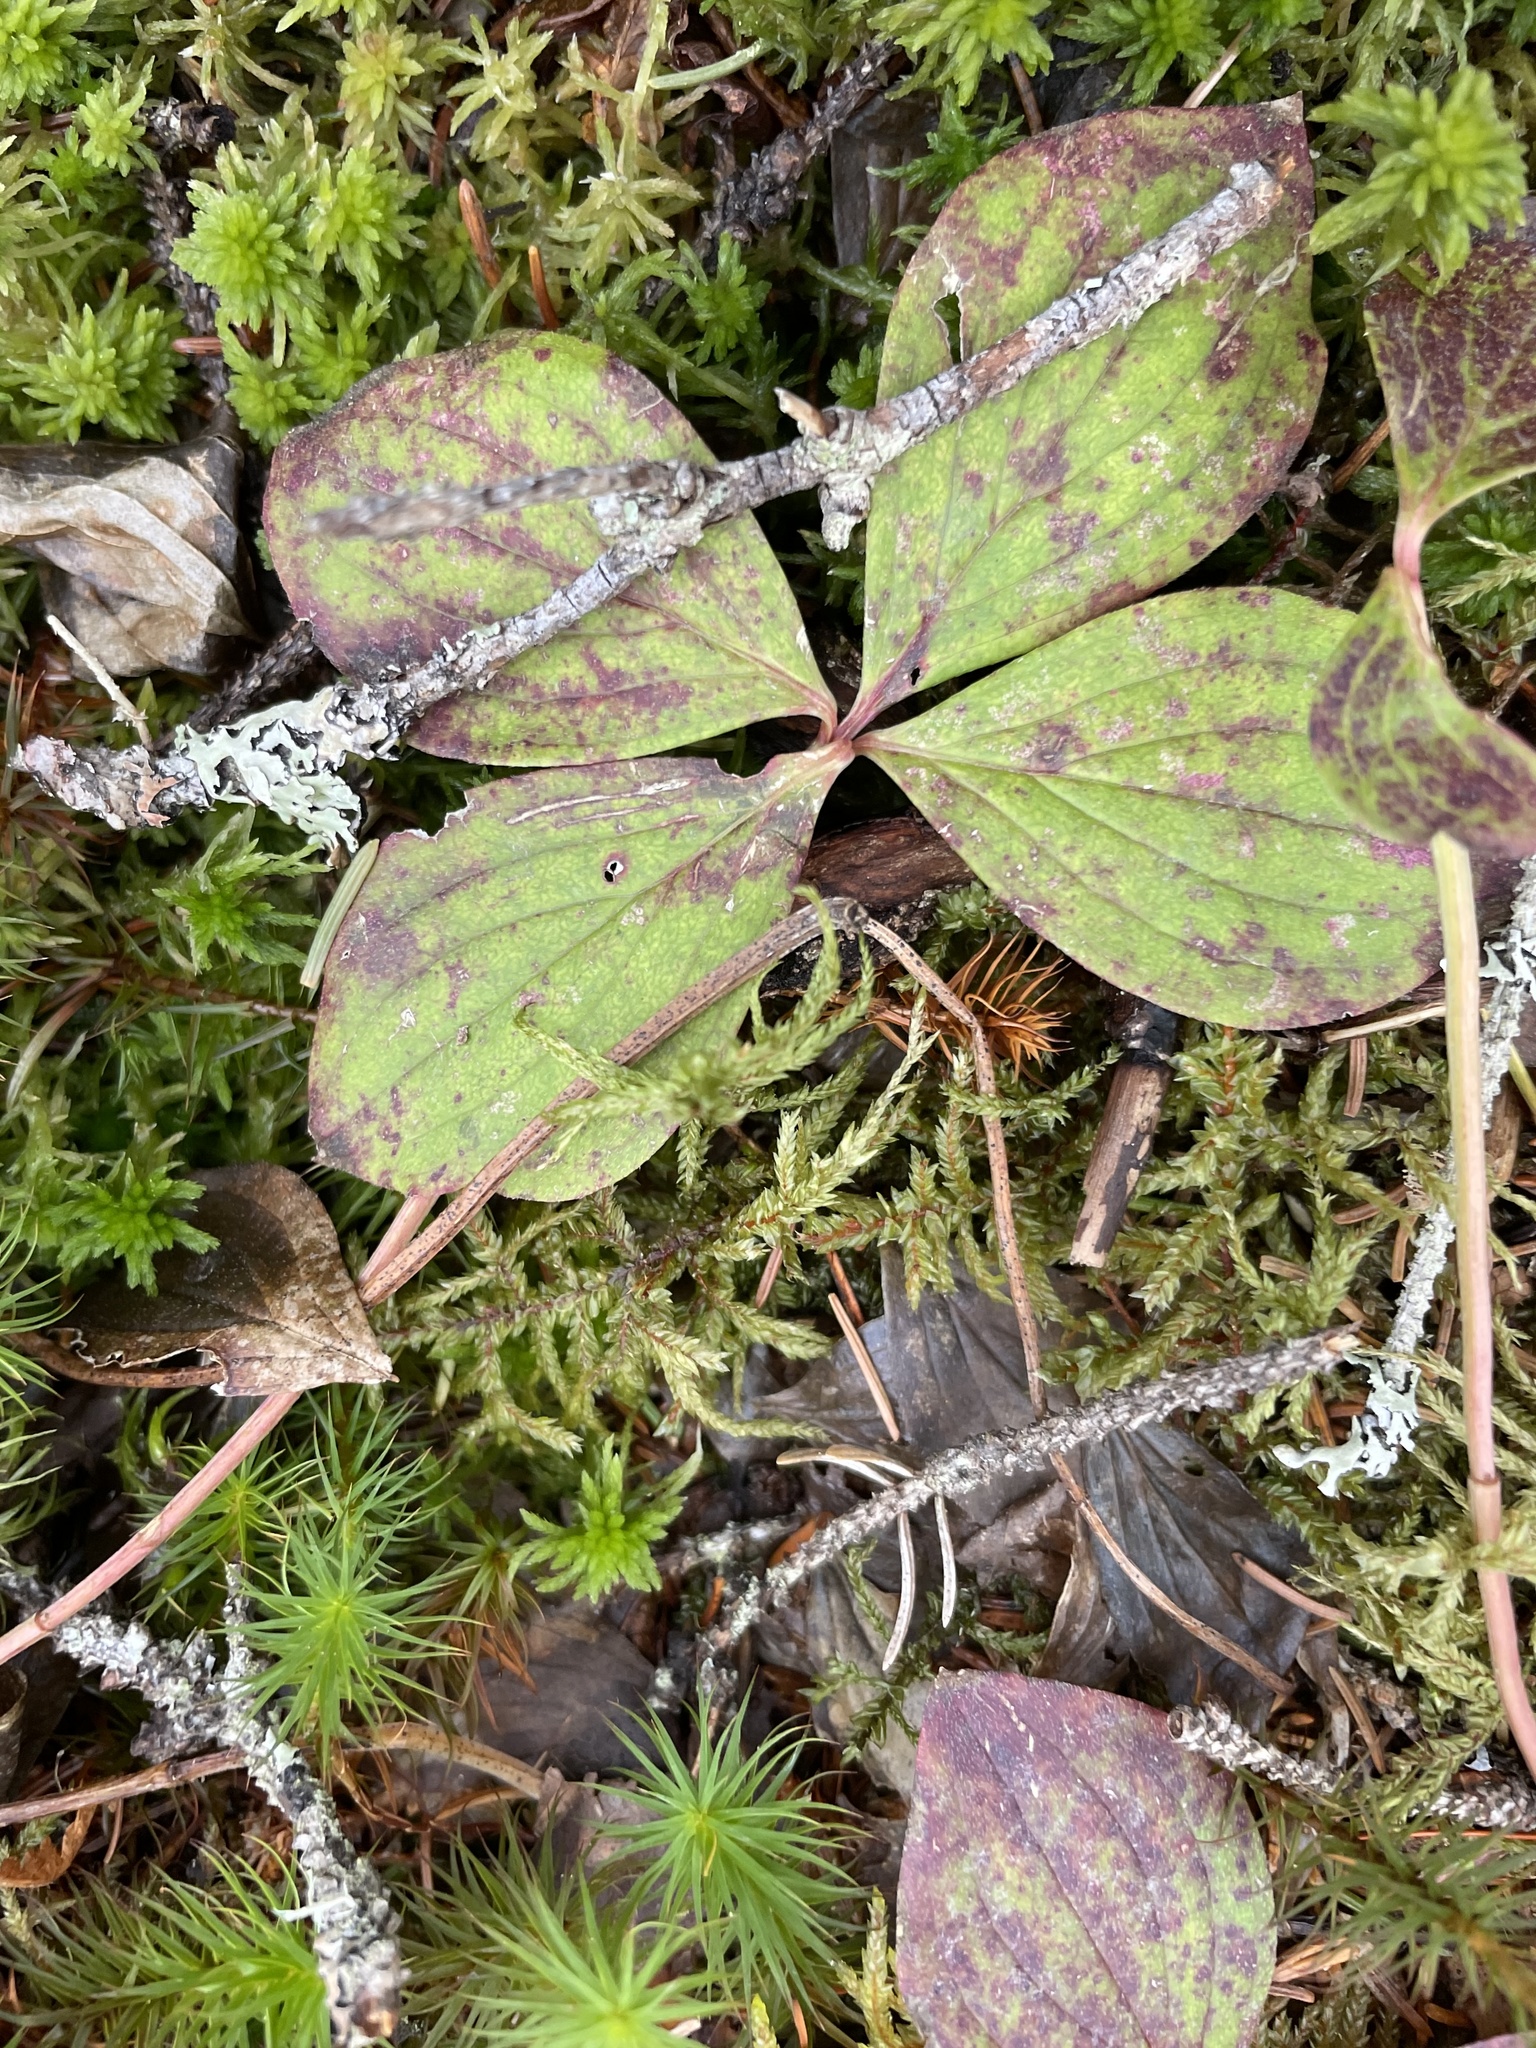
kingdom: Plantae
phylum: Tracheophyta
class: Magnoliopsida
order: Cornales
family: Cornaceae
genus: Cornus
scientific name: Cornus canadensis
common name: Creeping dogwood
